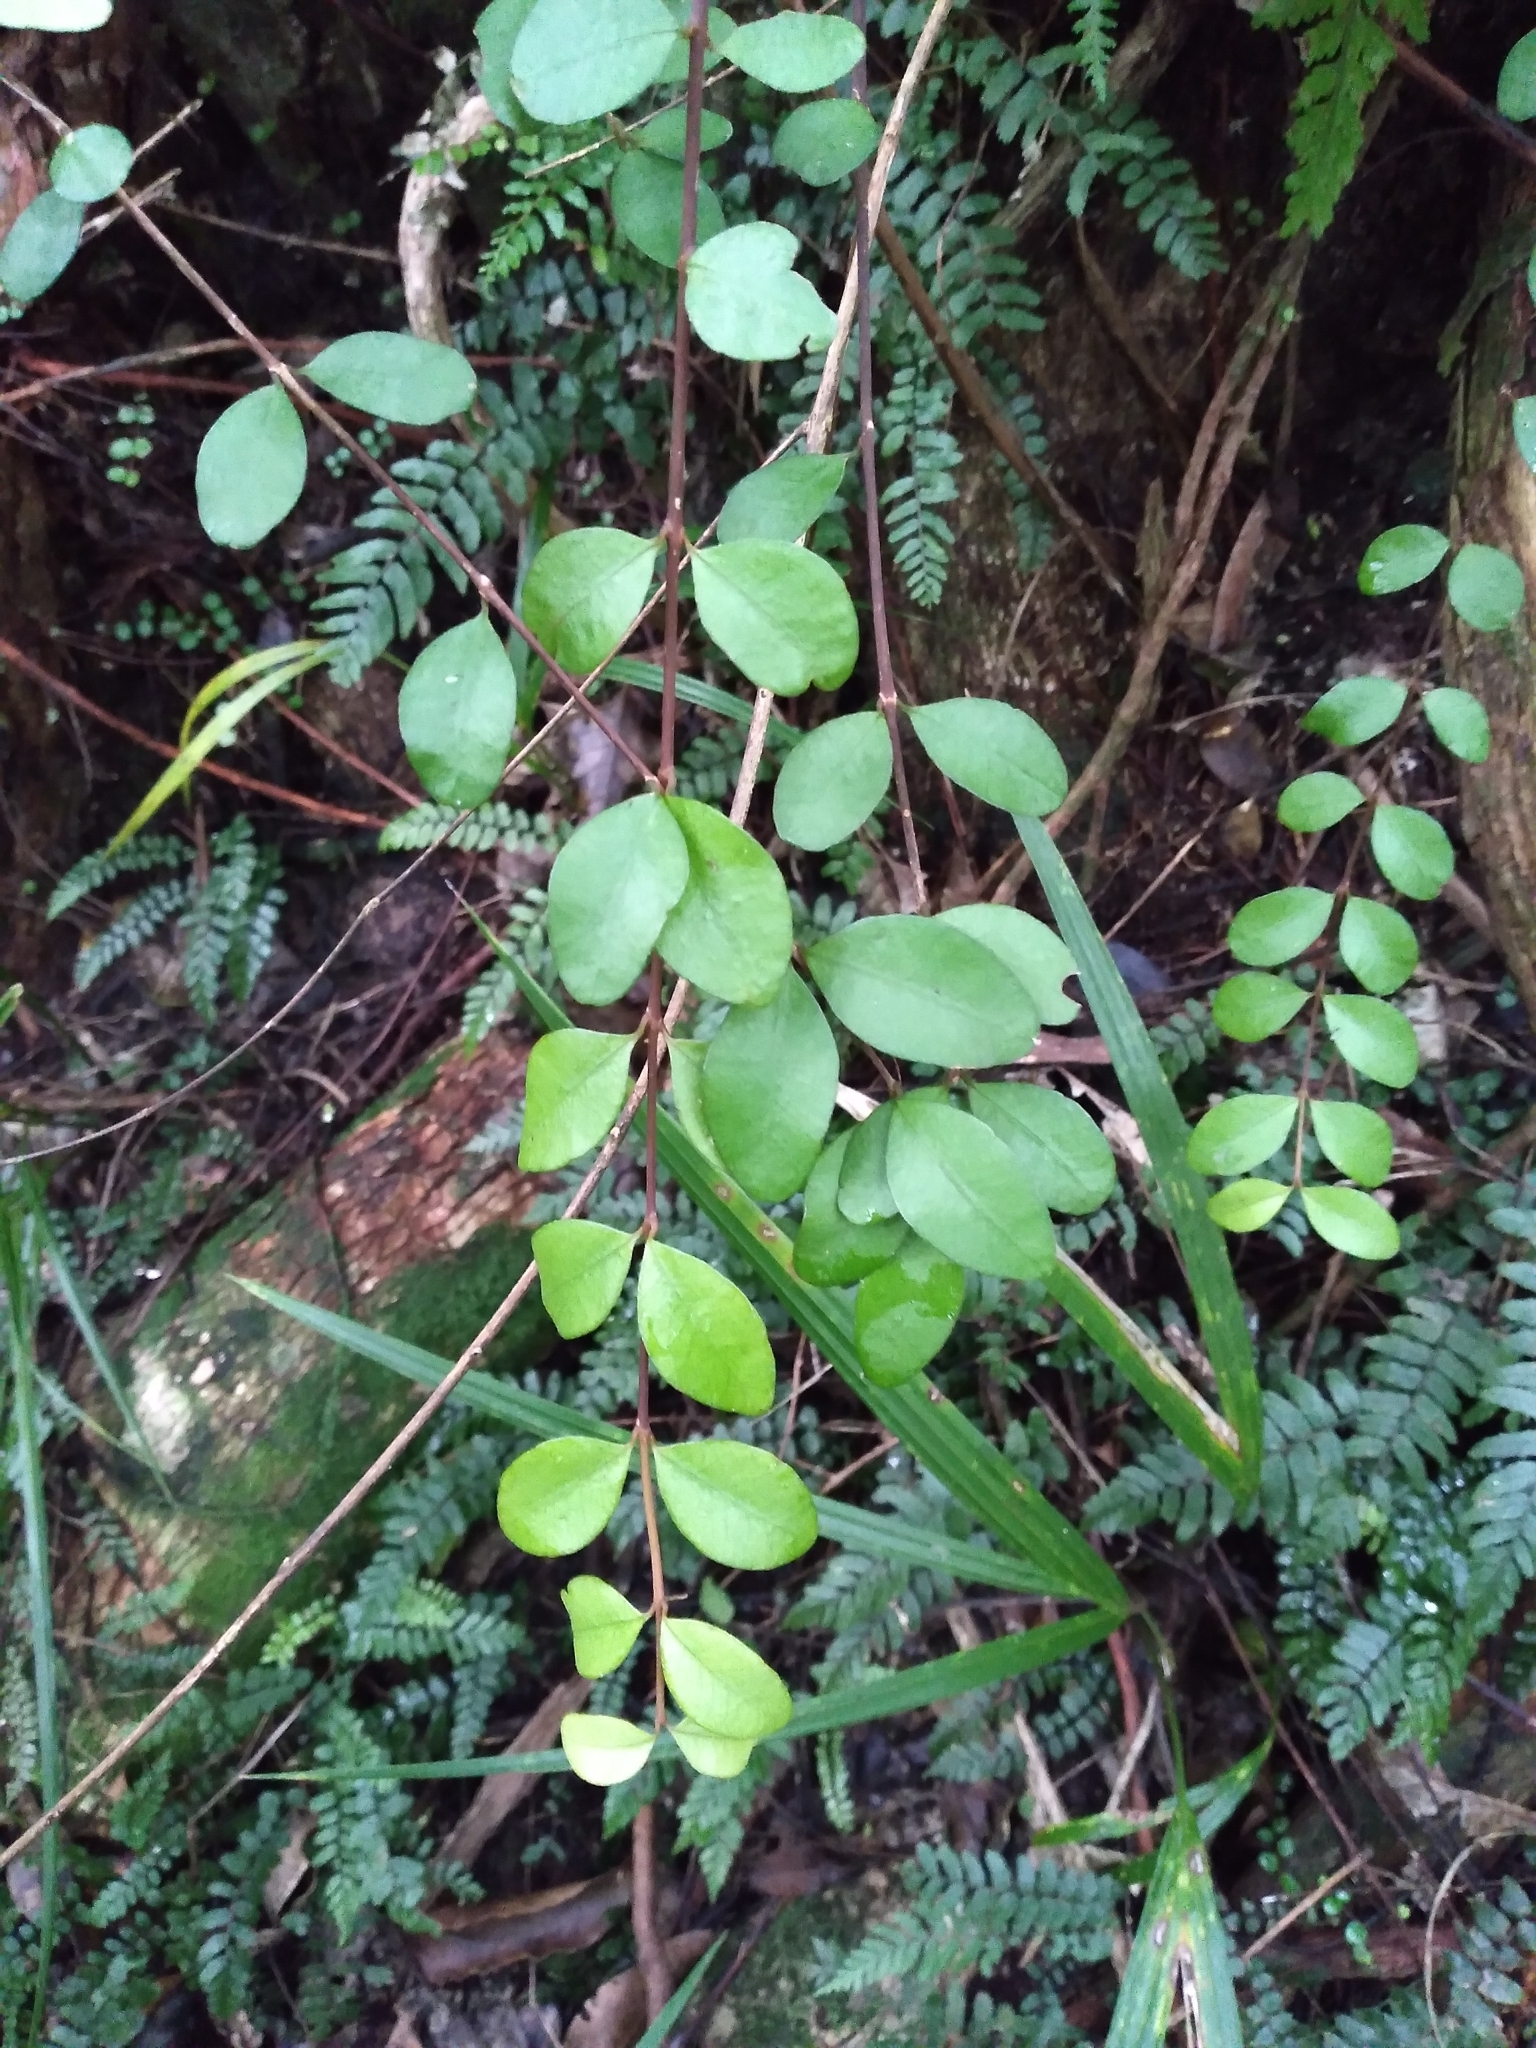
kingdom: Plantae
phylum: Tracheophyta
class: Magnoliopsida
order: Myrtales
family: Myrtaceae
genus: Metrosideros
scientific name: Metrosideros fulgens
